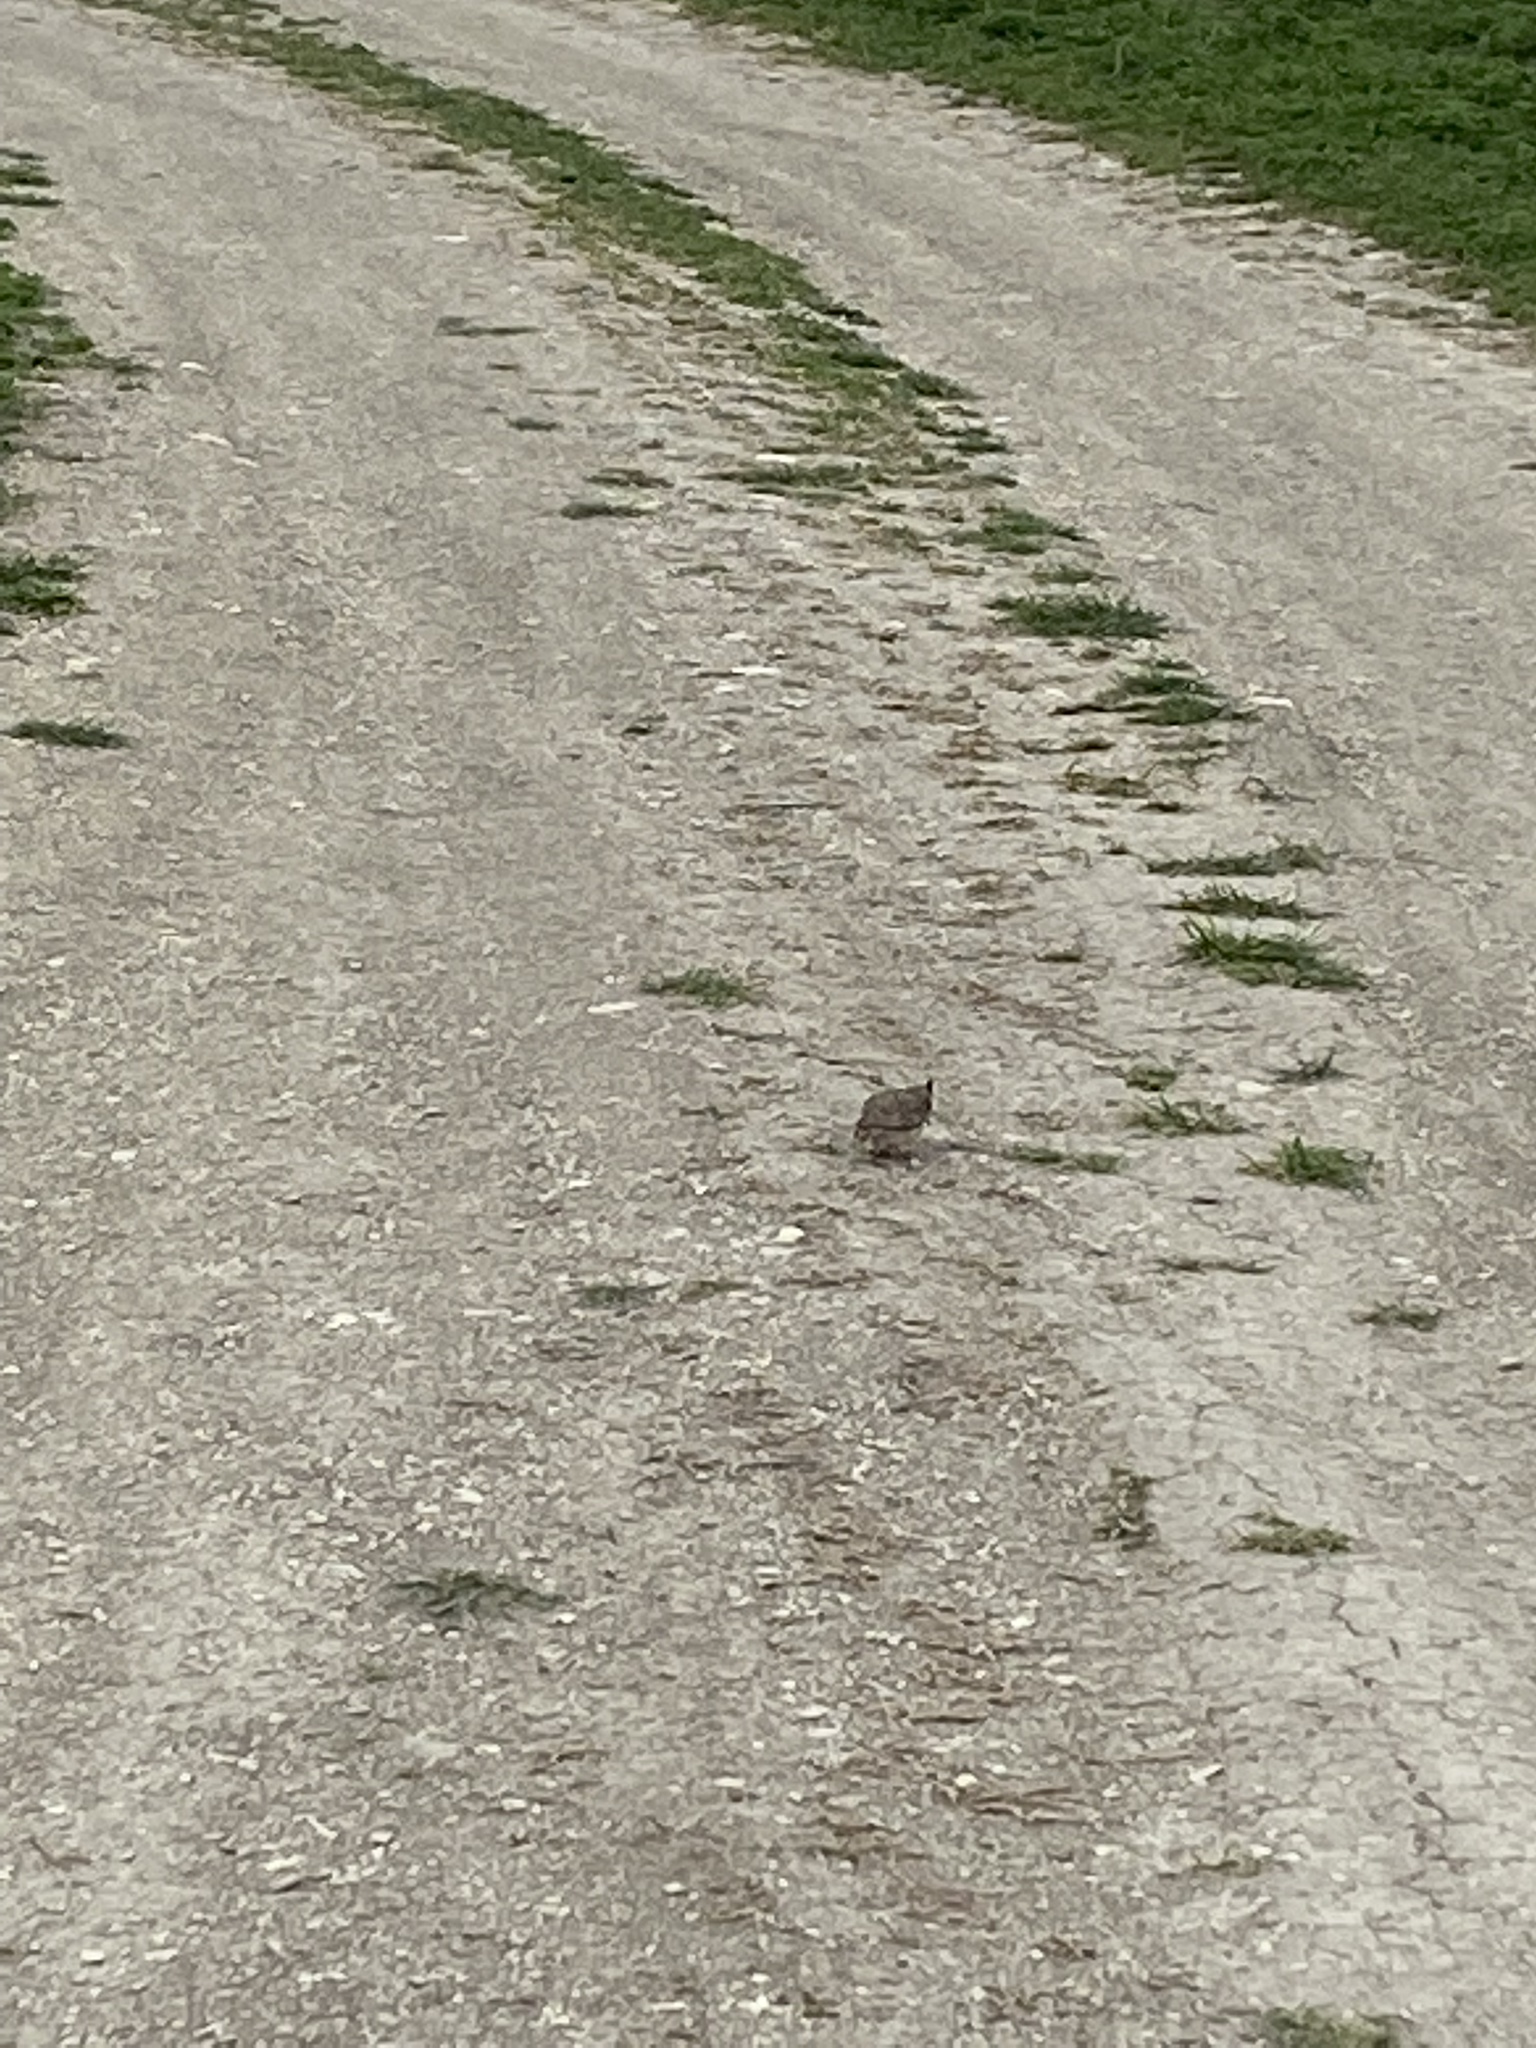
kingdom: Animalia
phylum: Chordata
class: Aves
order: Passeriformes
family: Alaudidae
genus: Galerida
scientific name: Galerida cristata
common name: Crested lark
